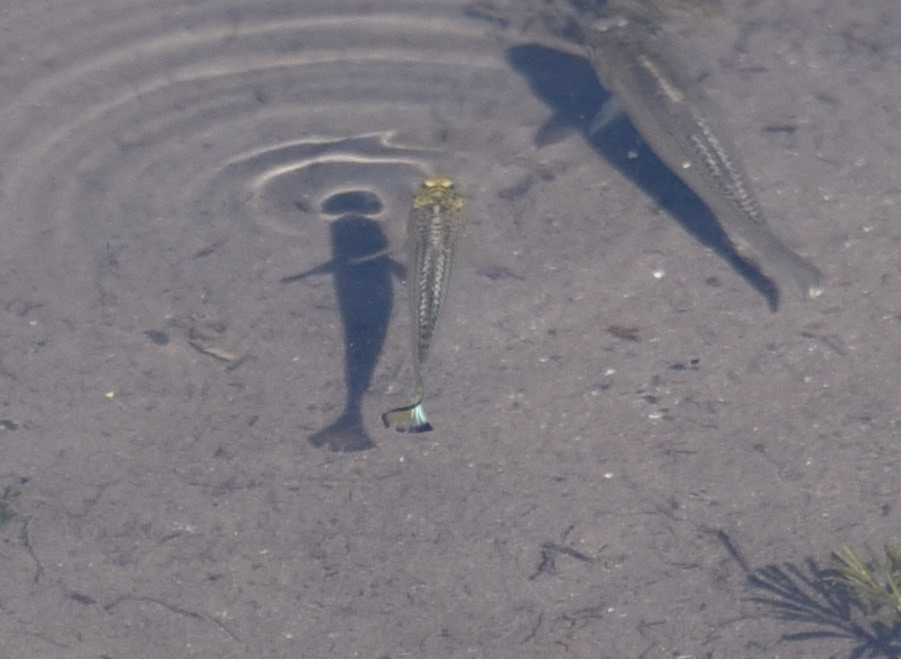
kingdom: Animalia
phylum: Chordata
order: Cyprinodontiformes
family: Poeciliidae
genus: Poecilia
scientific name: Poecilia latipinna
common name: Sailfin molly
